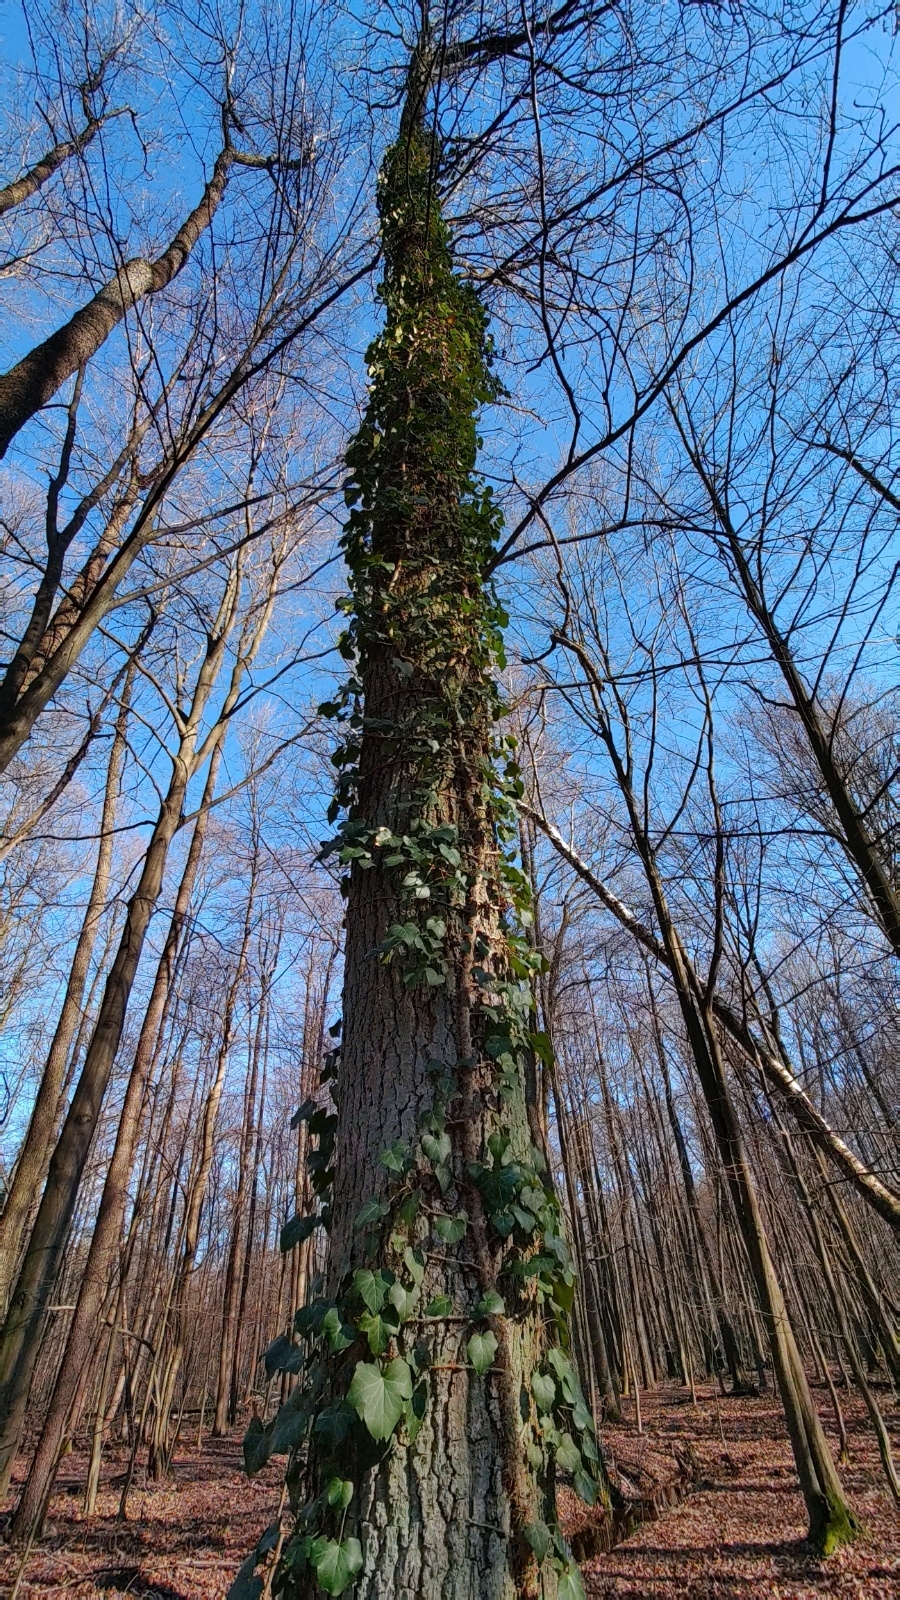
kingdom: Plantae
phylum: Tracheophyta
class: Magnoliopsida
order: Apiales
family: Araliaceae
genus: Hedera
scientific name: Hedera helix
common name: Ivy
